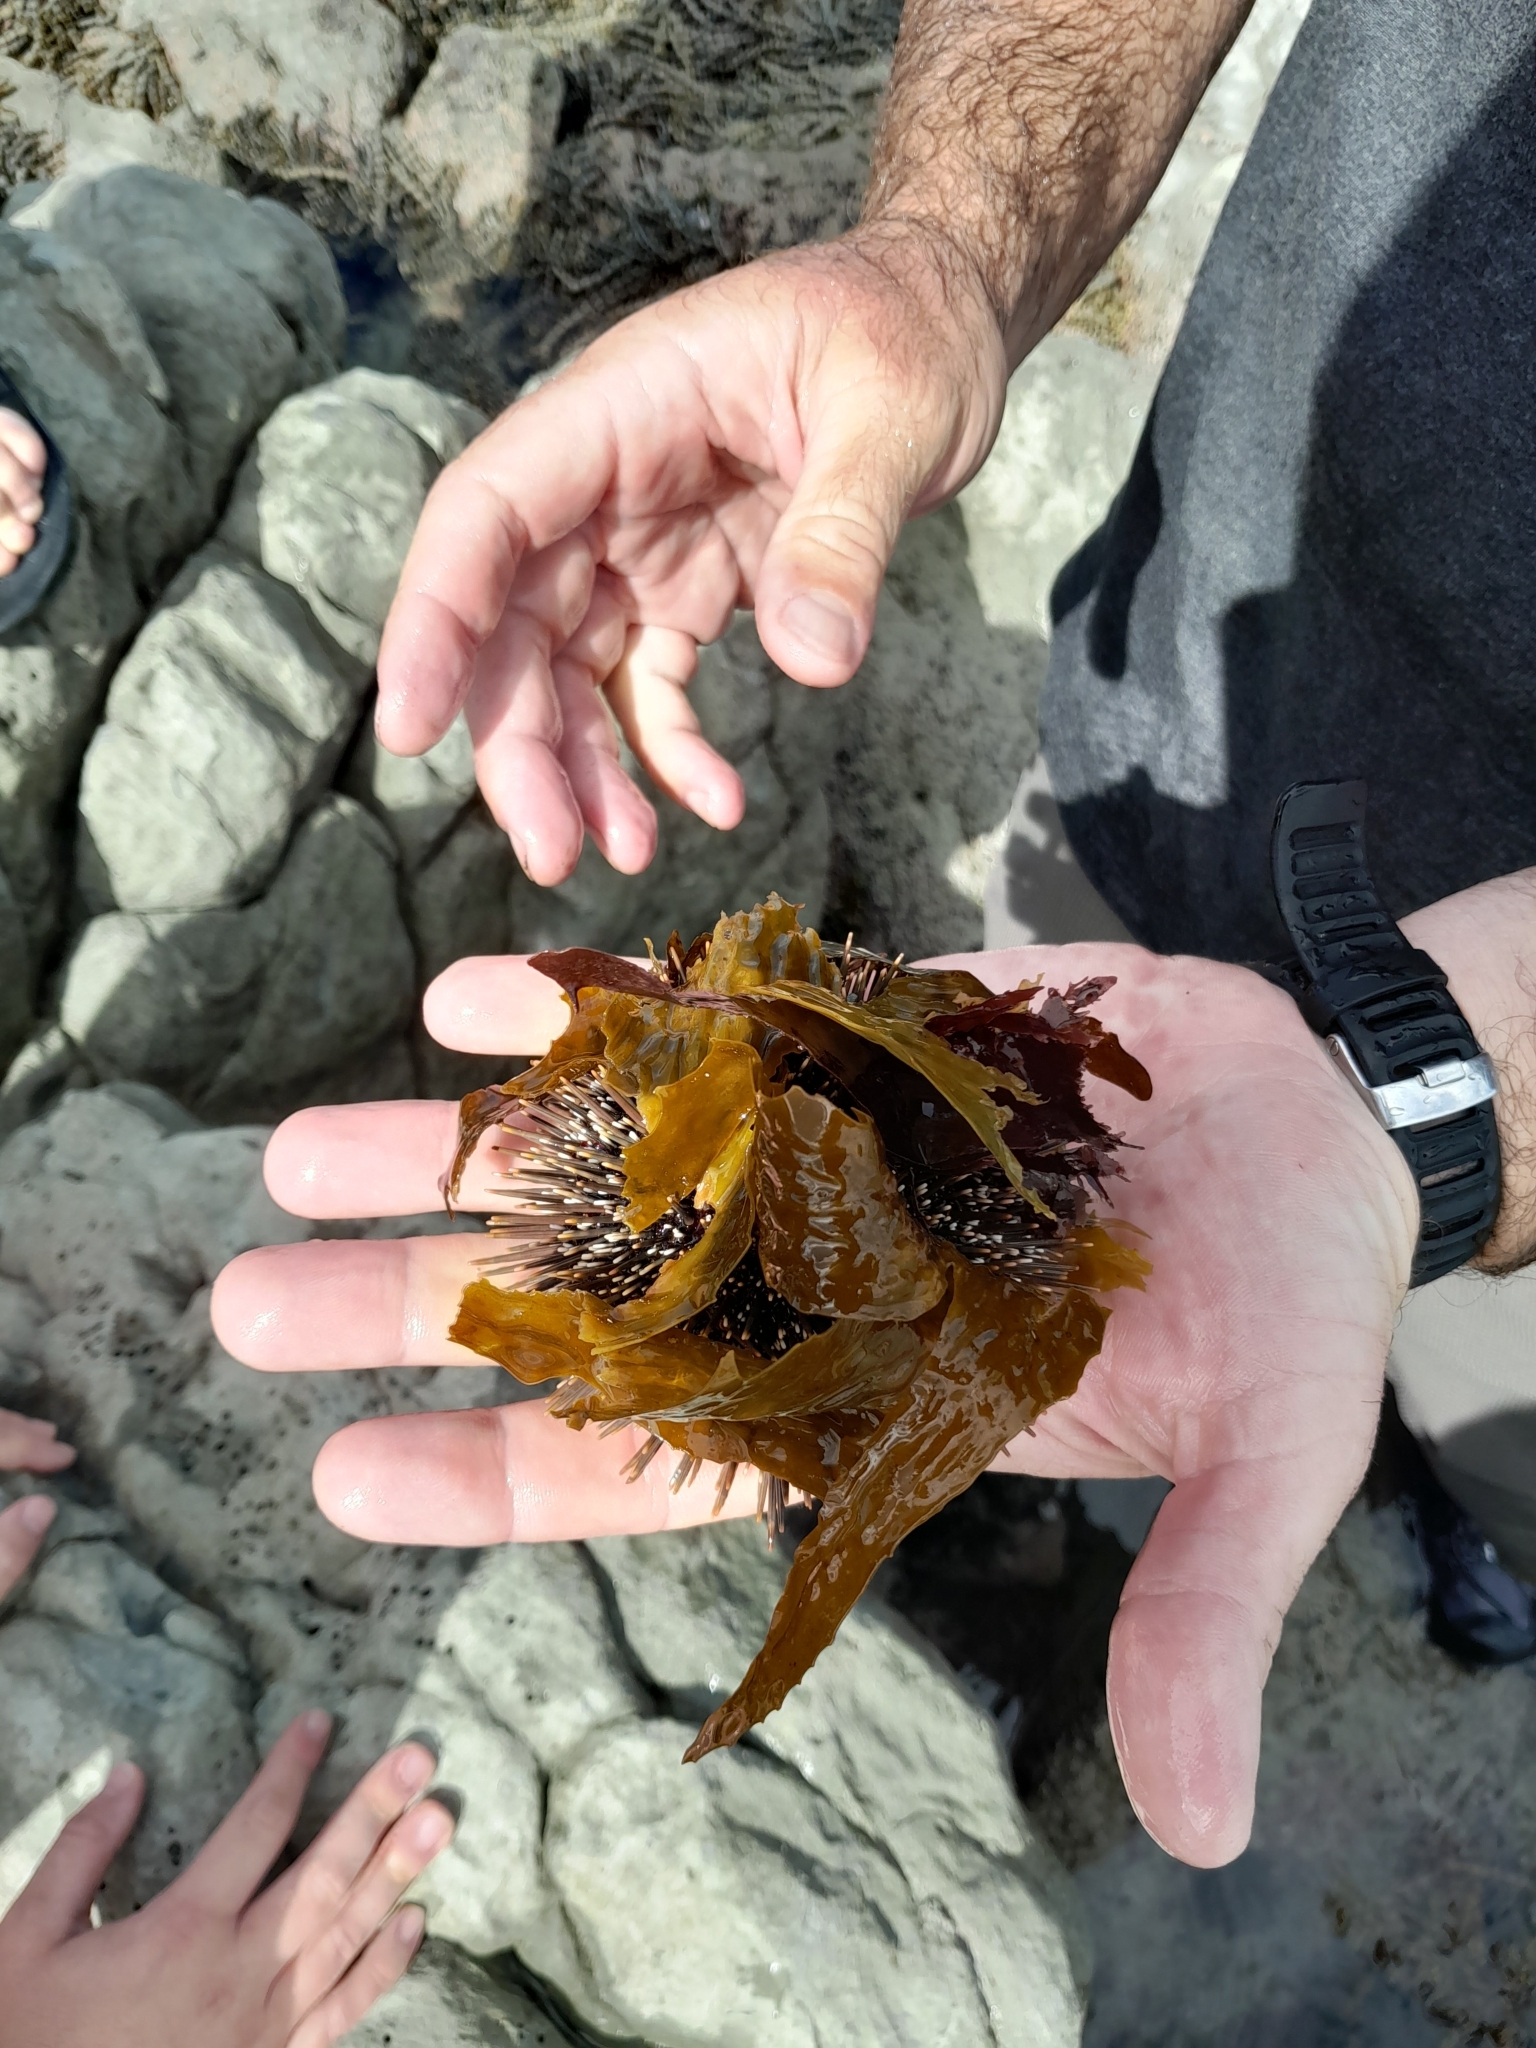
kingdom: Animalia
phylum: Echinodermata
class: Echinoidea
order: Camarodonta
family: Echinometridae
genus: Evechinus
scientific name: Evechinus chloroticus
